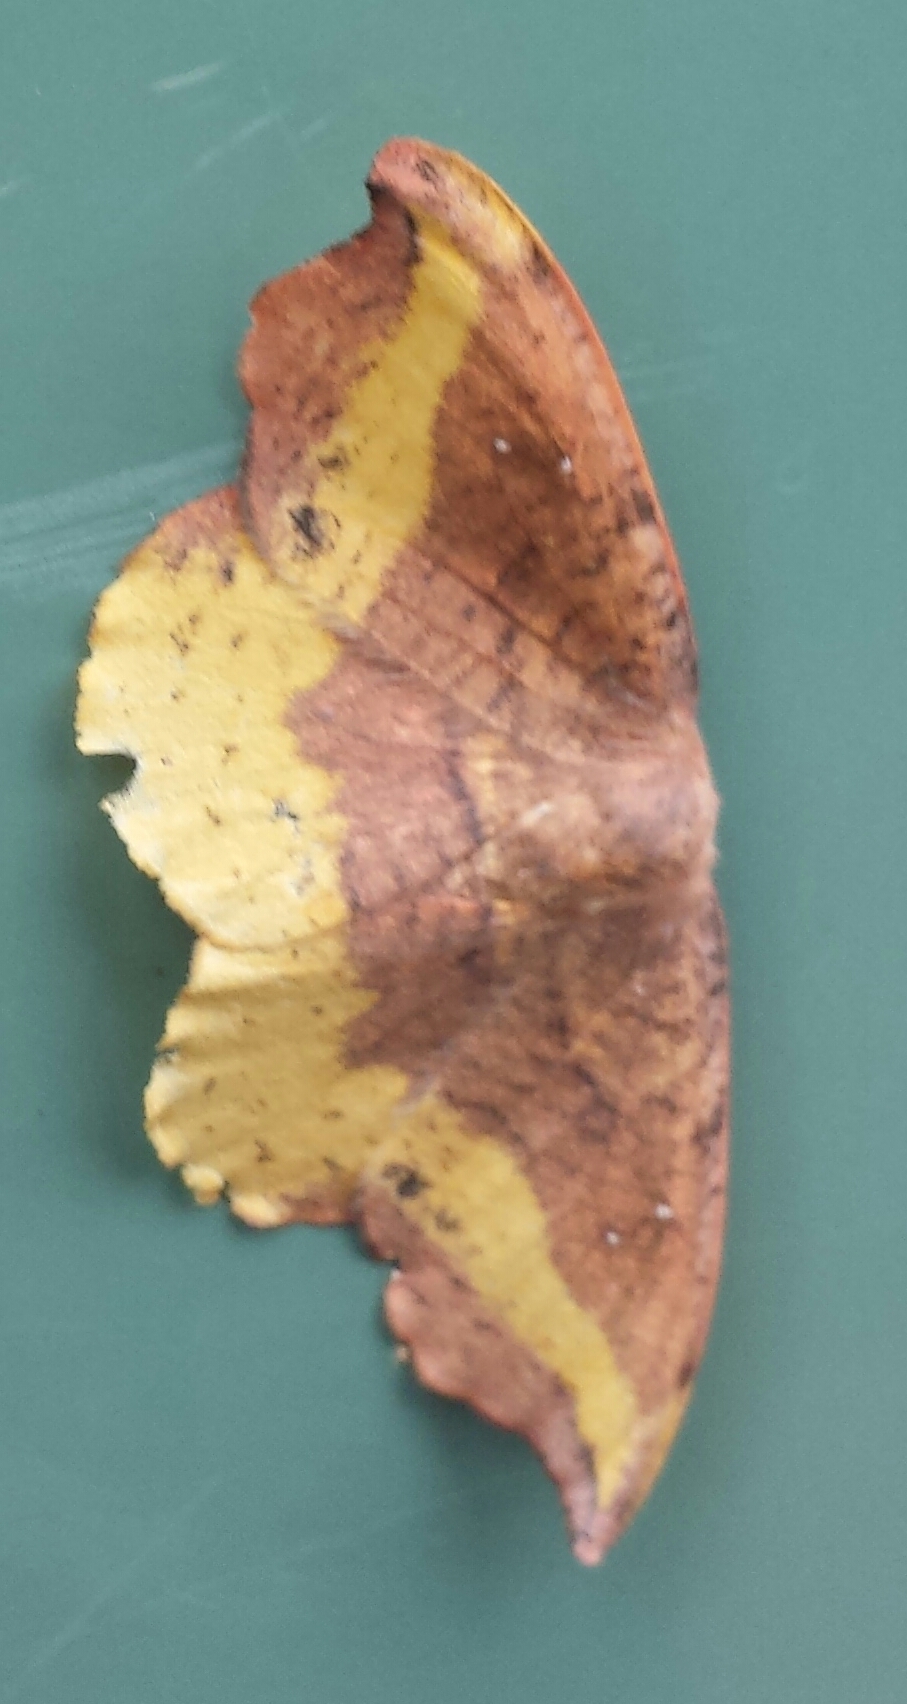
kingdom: Animalia
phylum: Arthropoda
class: Insecta
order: Lepidoptera
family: Drepanidae
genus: Oreta
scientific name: Oreta rosea
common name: Rose hooktip
